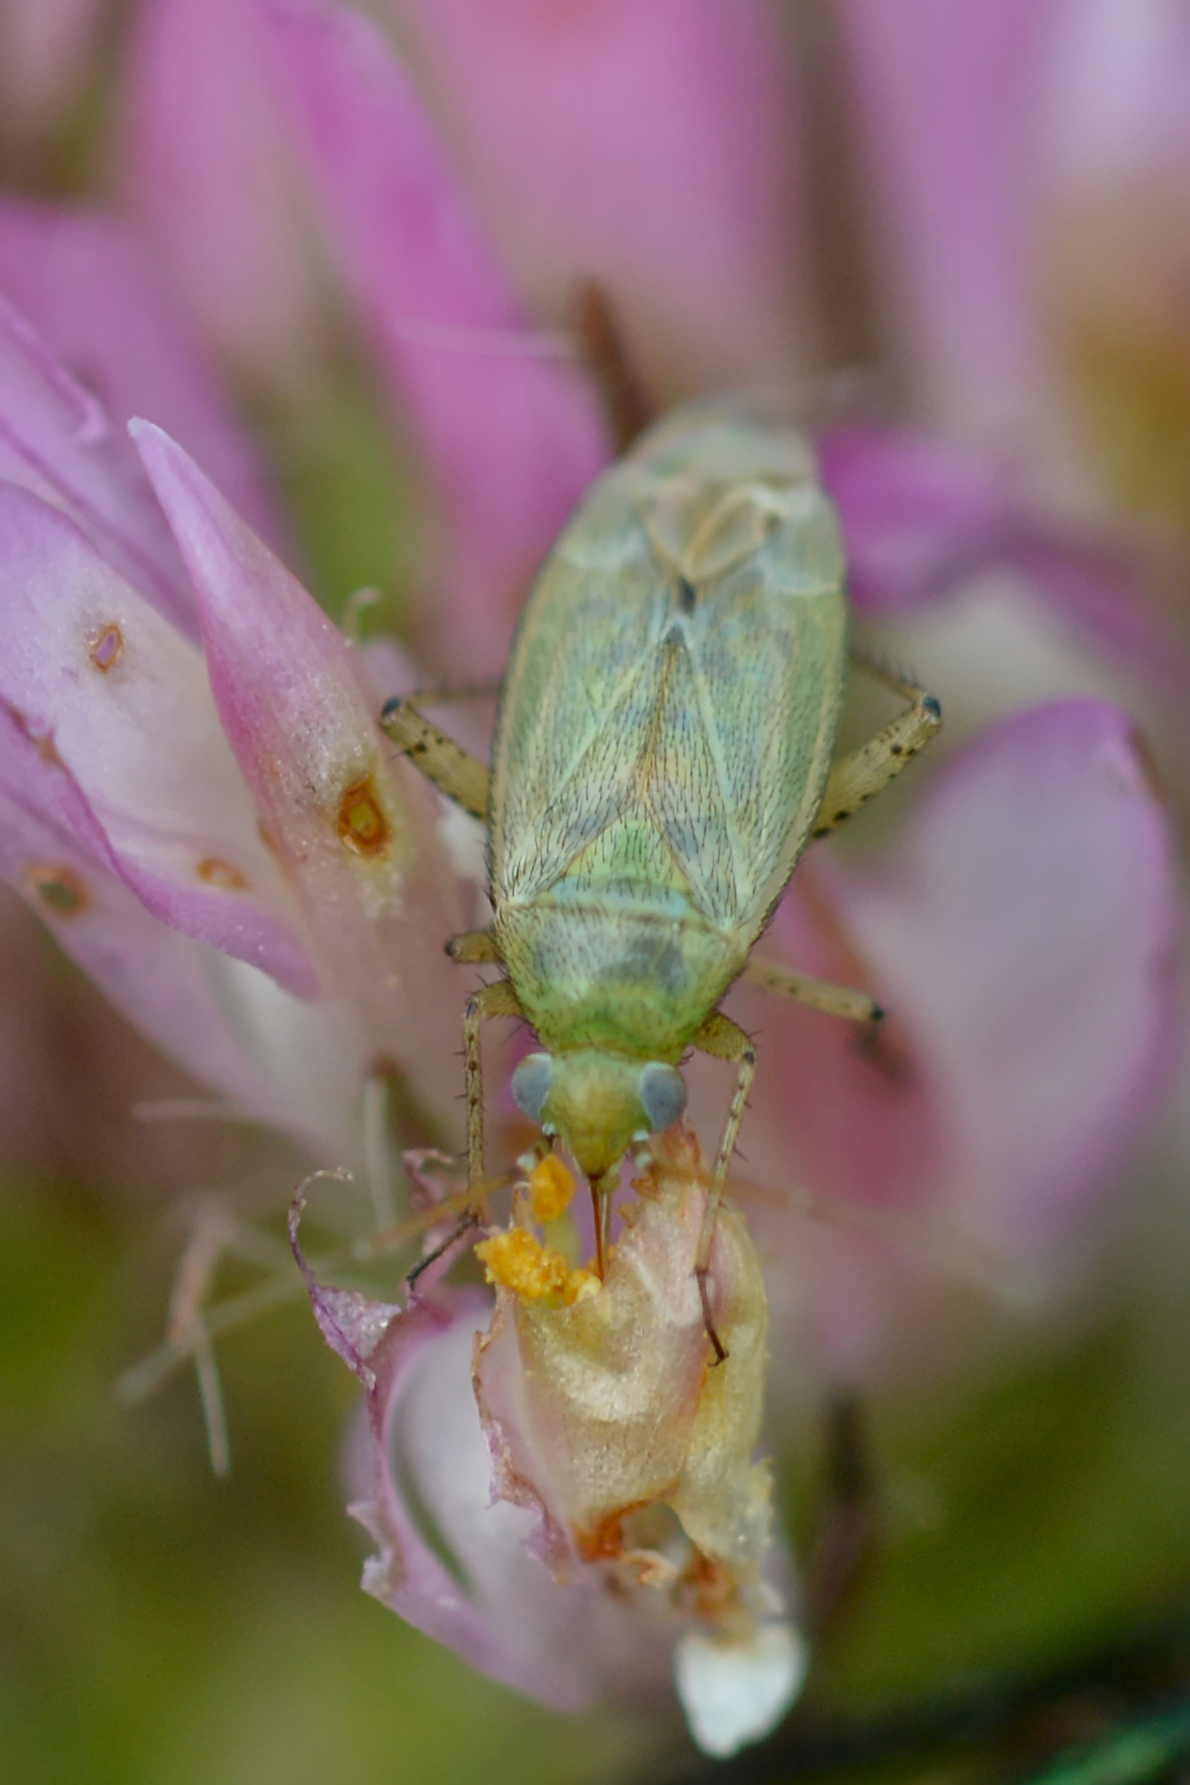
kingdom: Animalia
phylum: Arthropoda
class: Insecta
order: Hemiptera
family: Miridae
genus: Plagiognathus
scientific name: Plagiognathus chrysanthemi
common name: Plant bug
